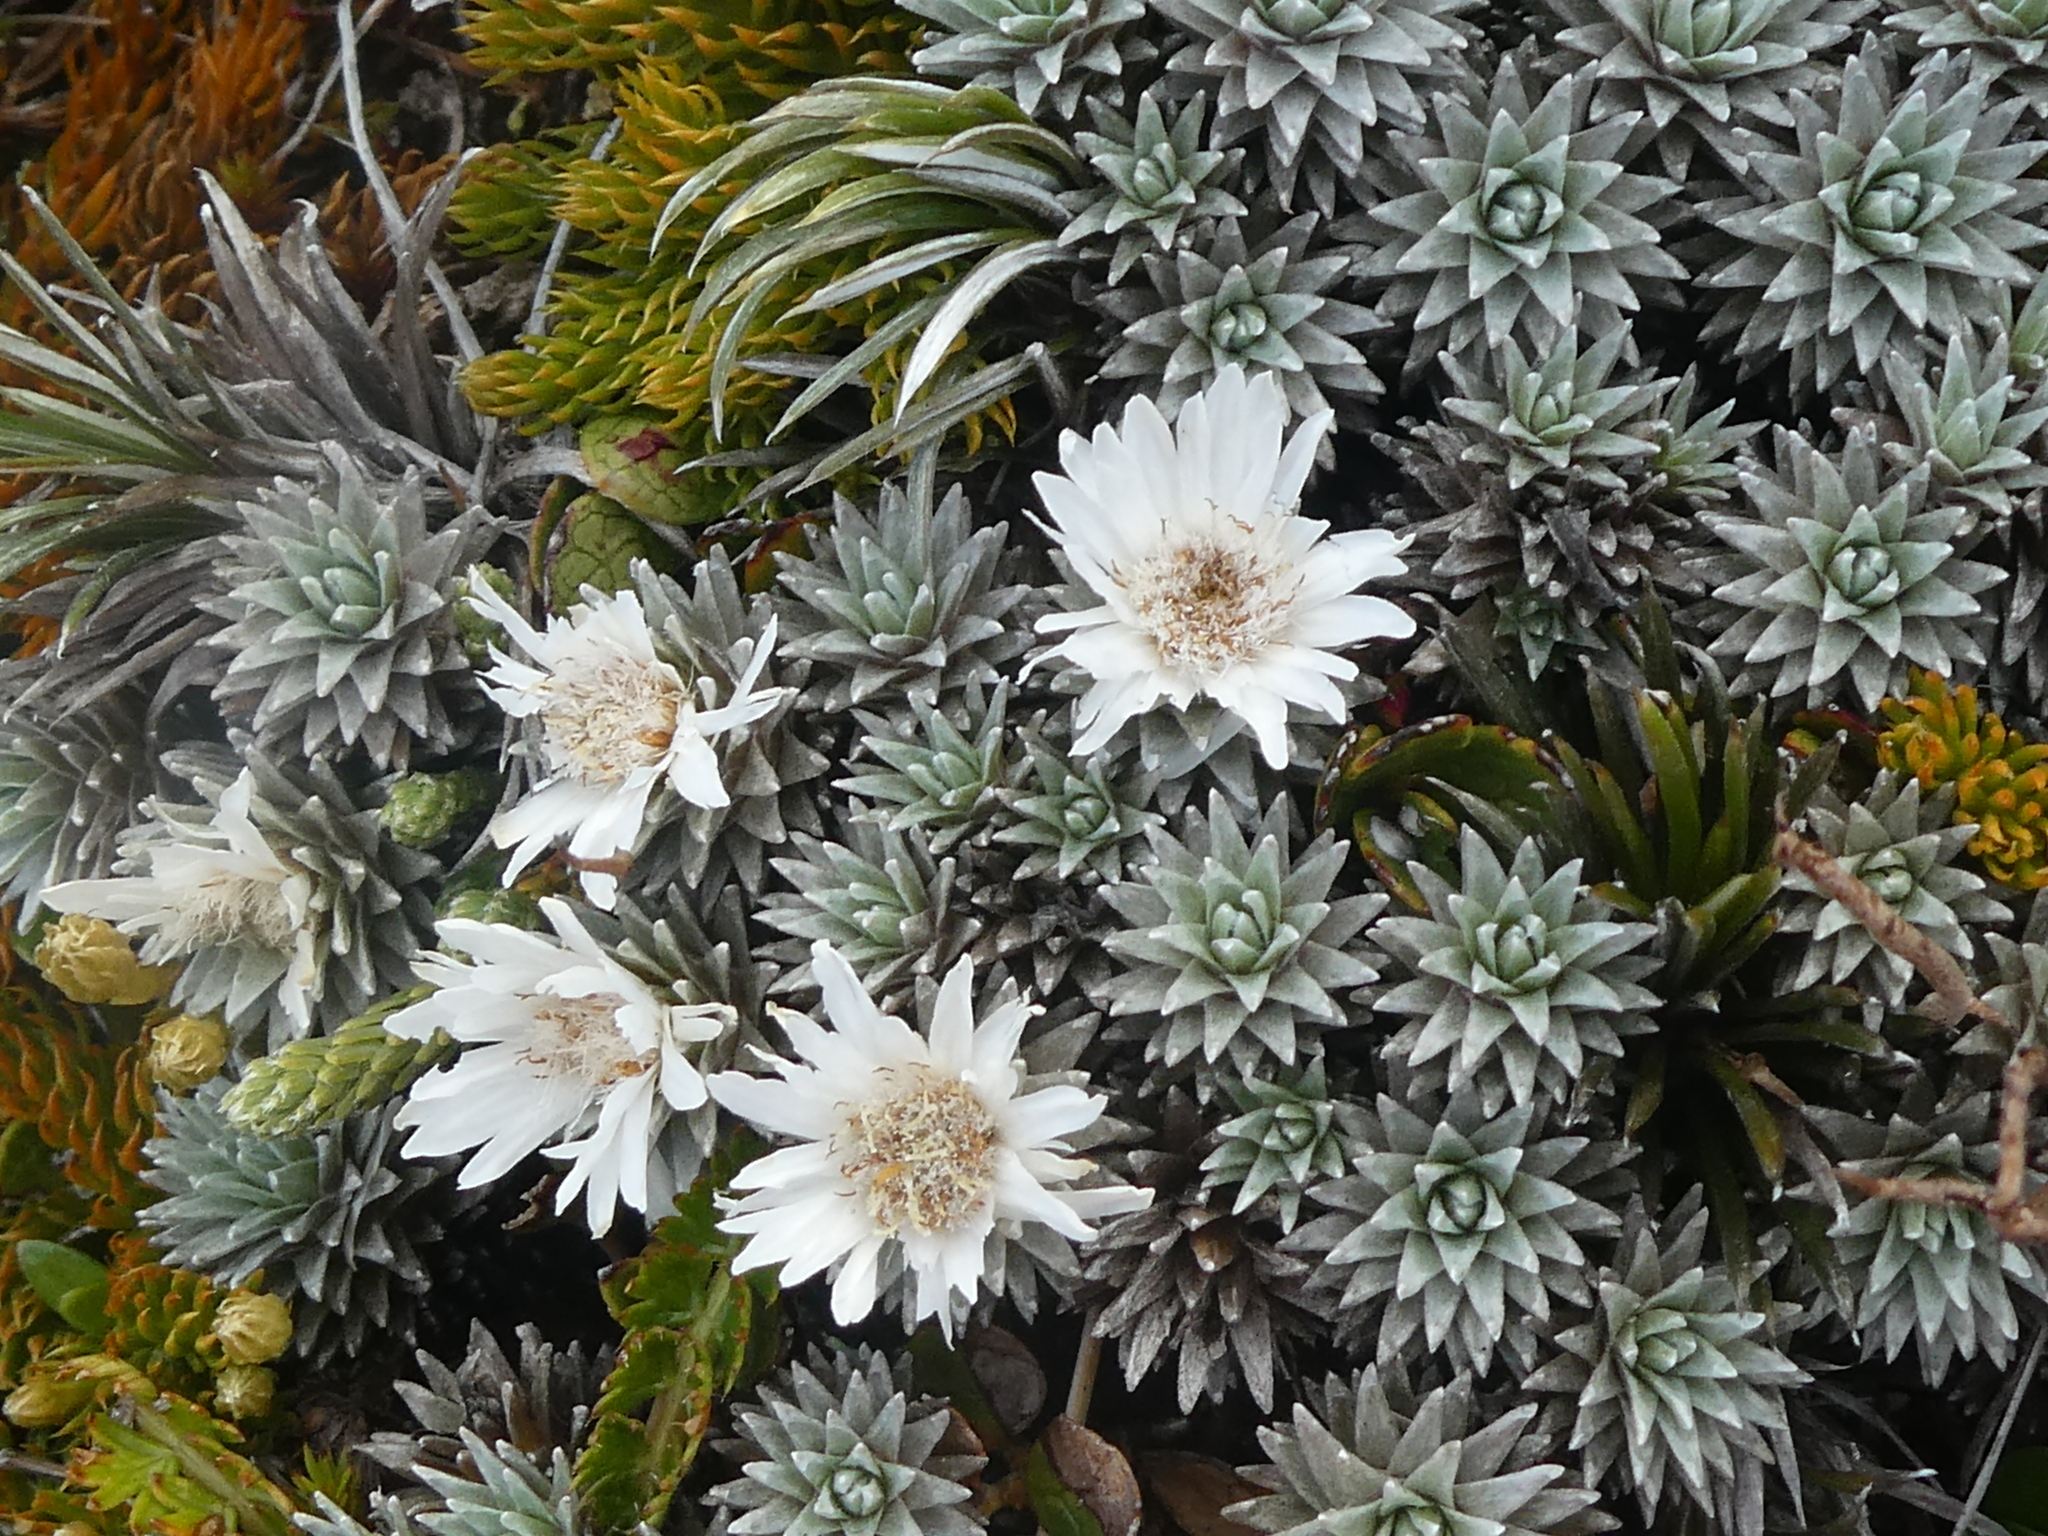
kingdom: Plantae
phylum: Tracheophyta
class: Magnoliopsida
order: Asterales
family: Asteraceae
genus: Raoulia
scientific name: Raoulia grandiflora
